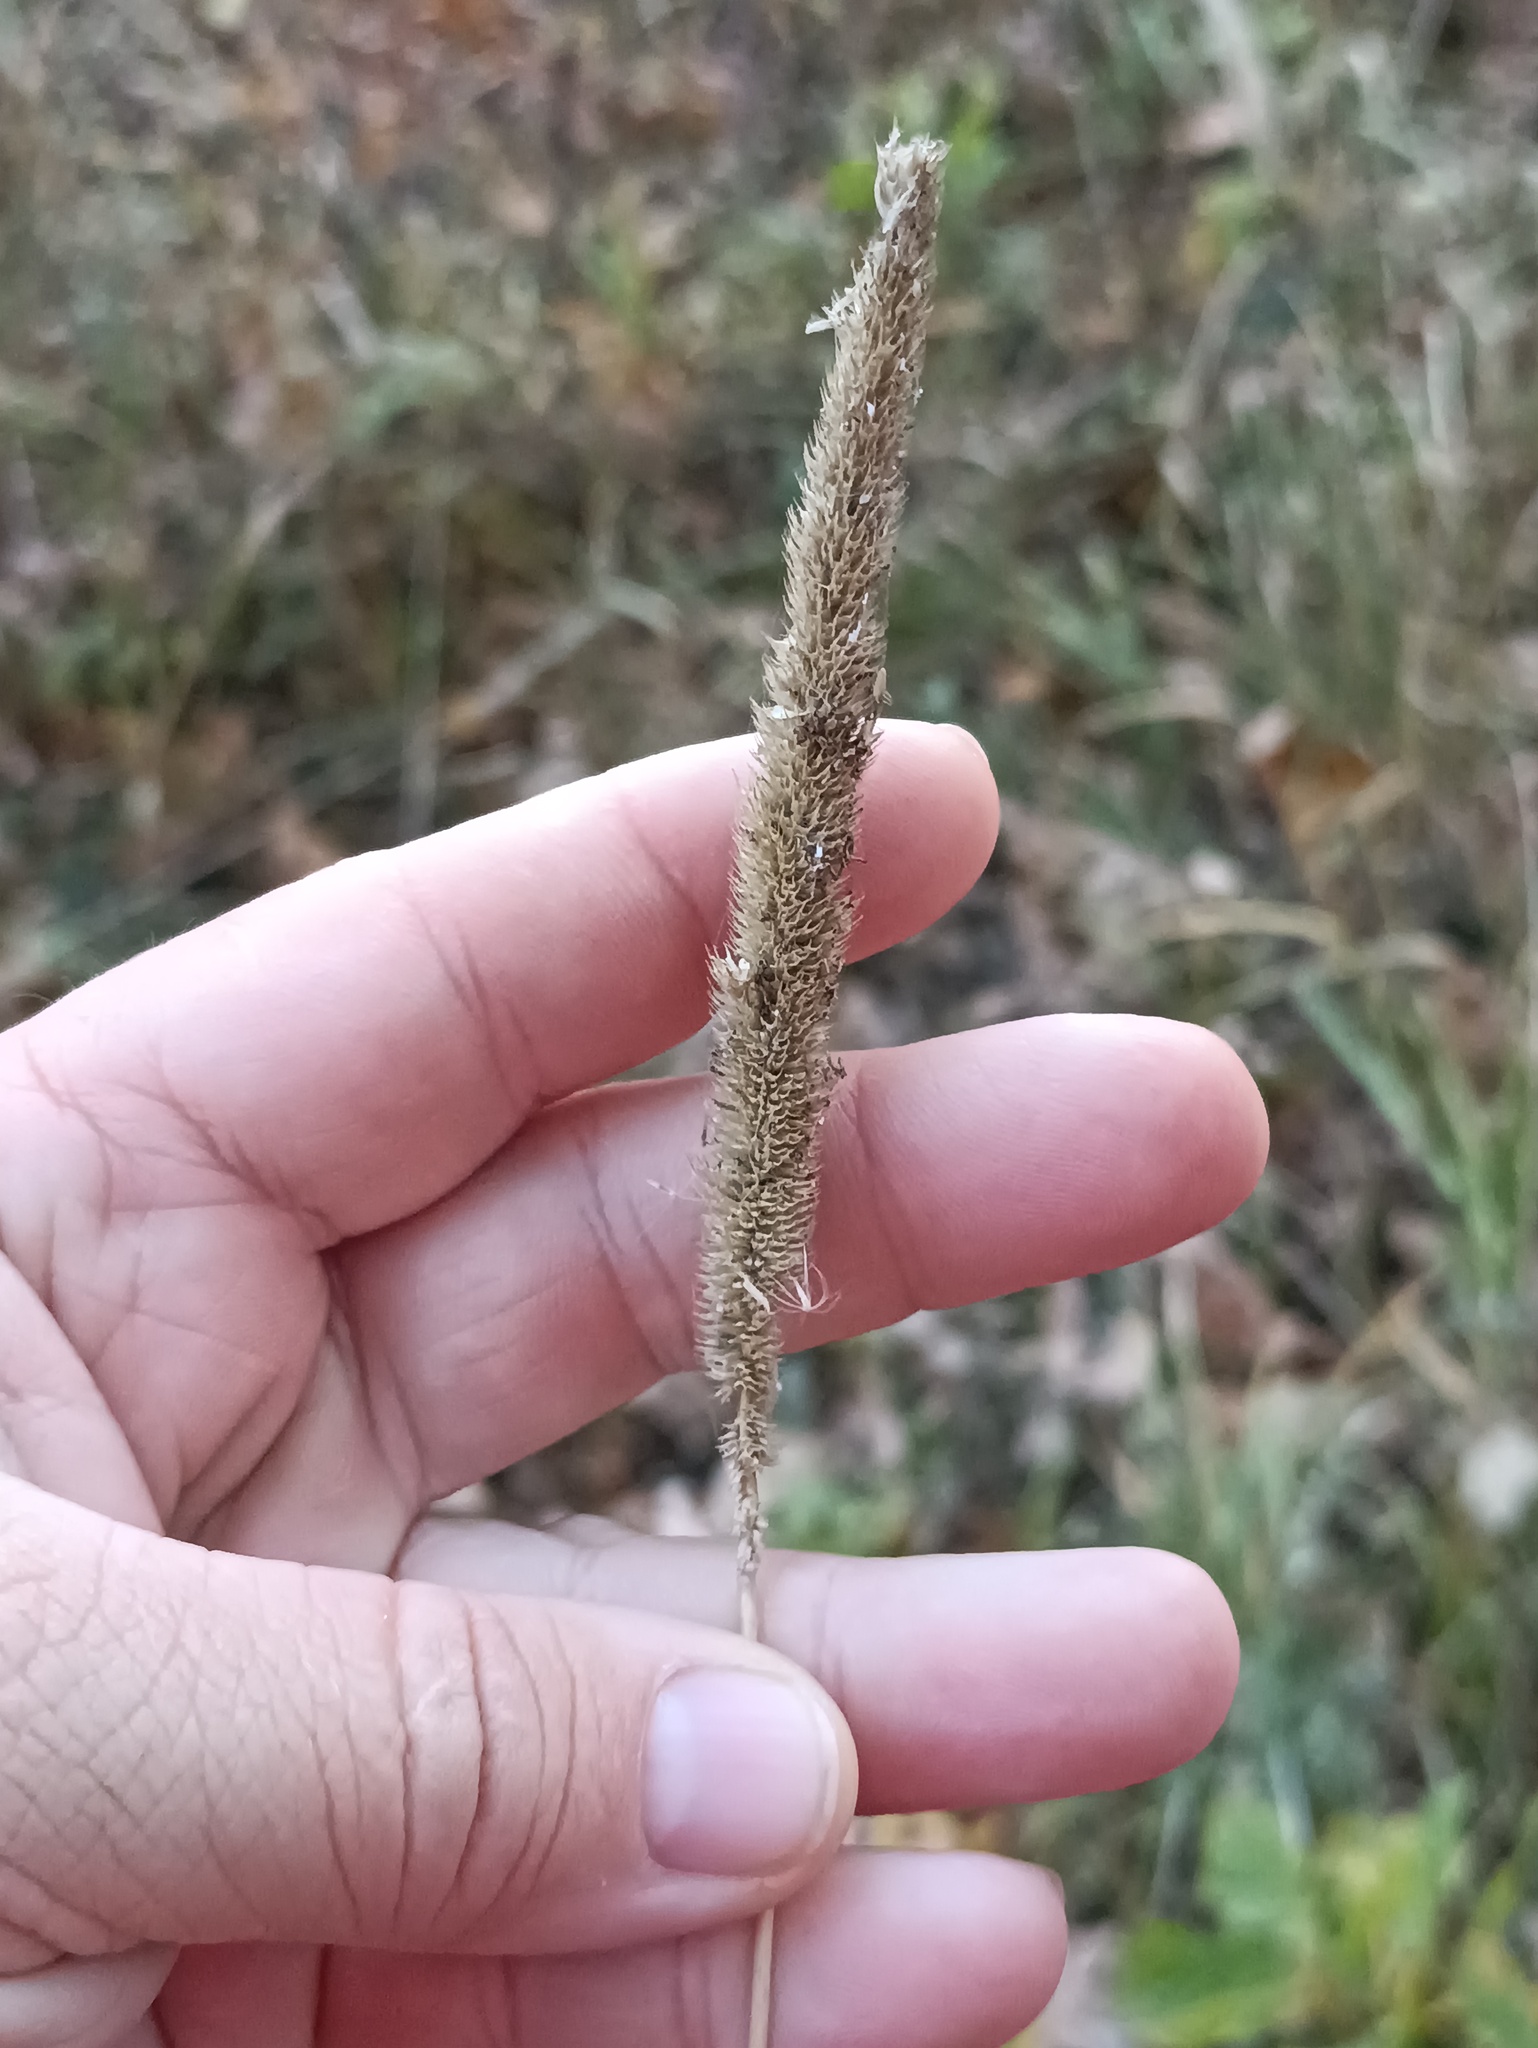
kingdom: Plantae
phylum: Tracheophyta
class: Liliopsida
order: Poales
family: Poaceae
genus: Phleum
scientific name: Phleum pratense
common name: Timothy grass
